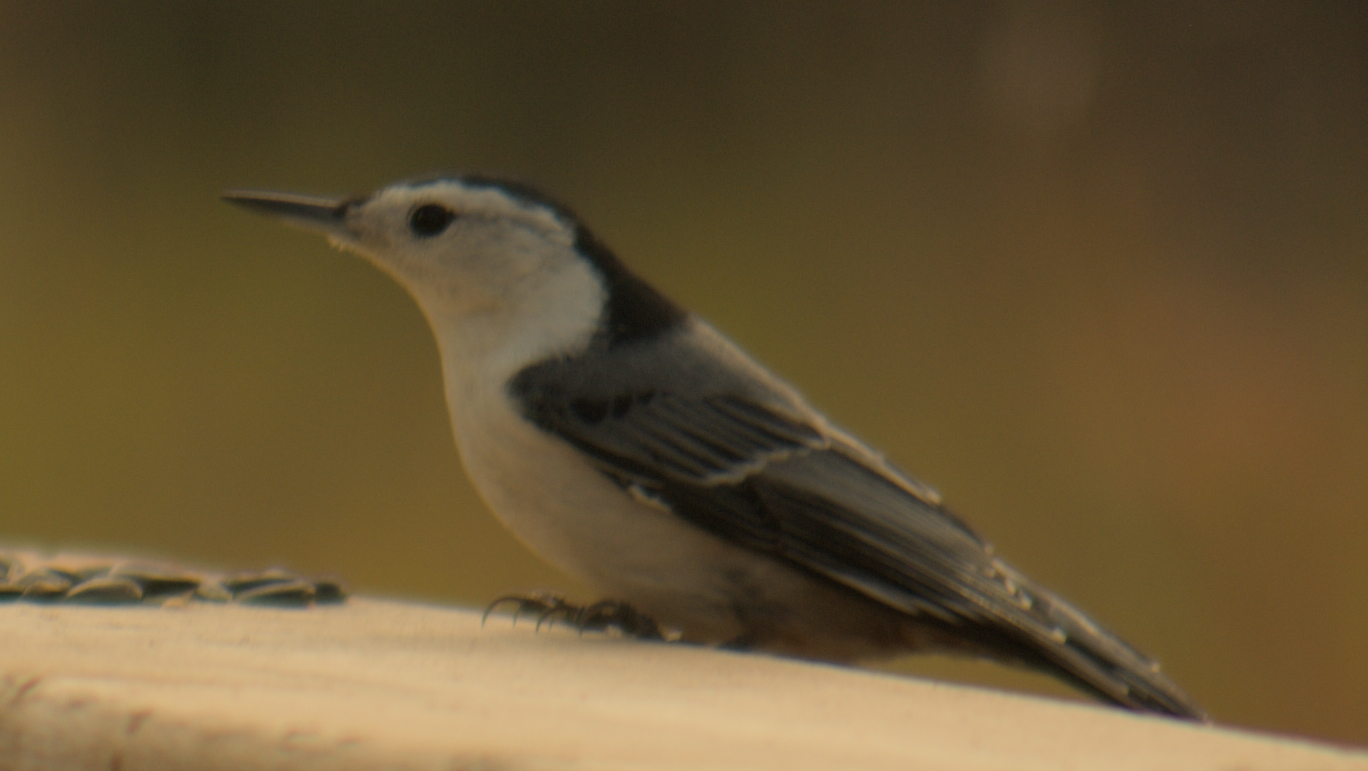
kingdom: Animalia
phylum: Chordata
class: Aves
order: Passeriformes
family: Sittidae
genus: Sitta
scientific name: Sitta carolinensis
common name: White-breasted nuthatch
